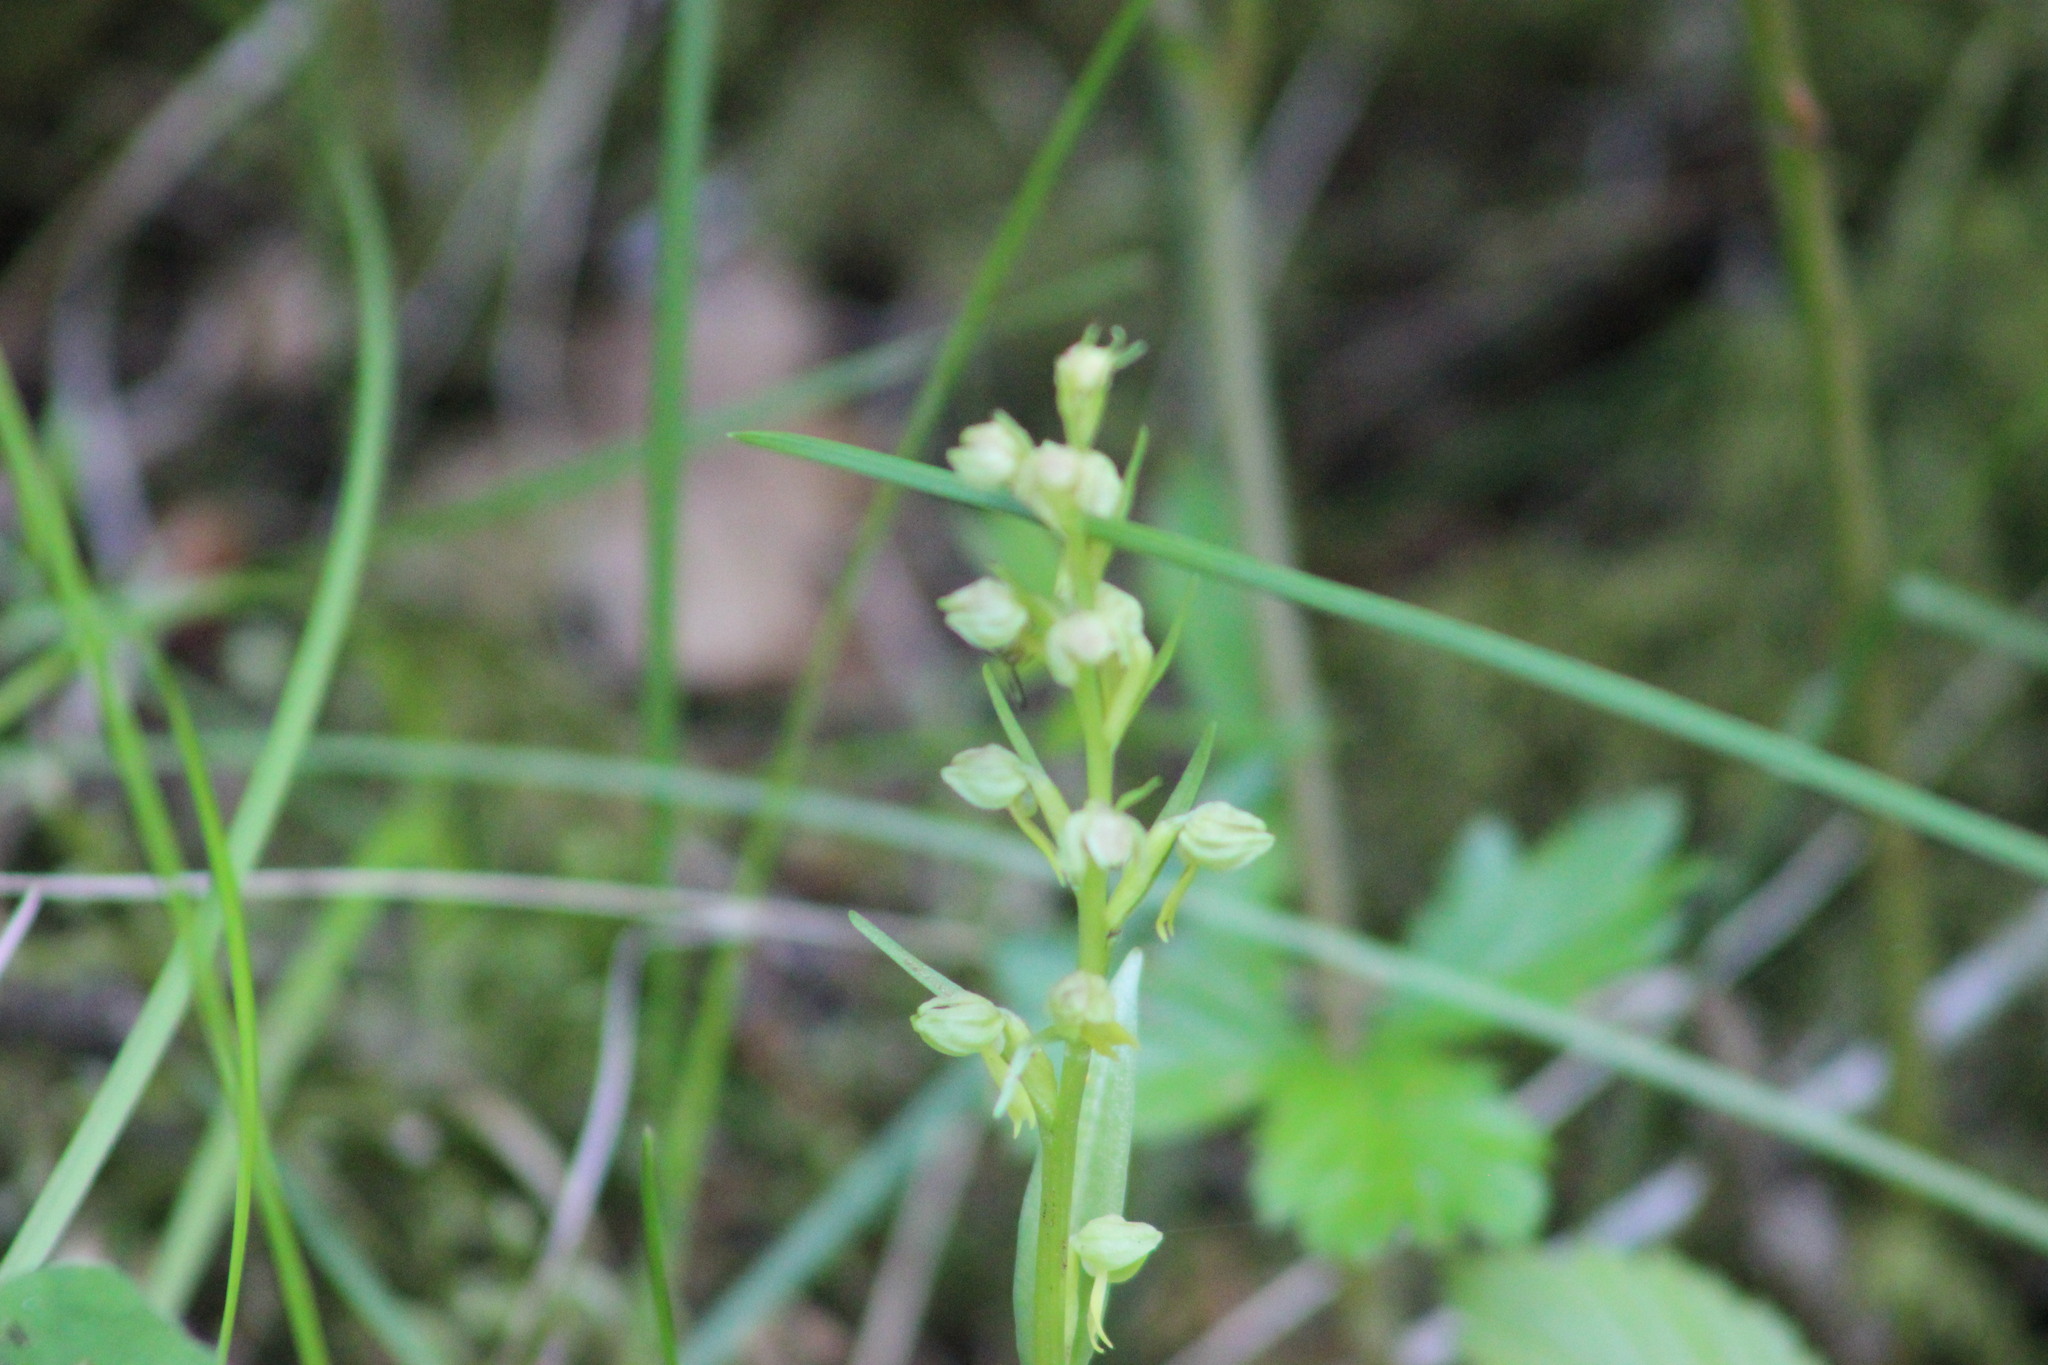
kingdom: Plantae
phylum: Tracheophyta
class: Liliopsida
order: Asparagales
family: Orchidaceae
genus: Dactylorhiza
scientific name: Dactylorhiza viridis
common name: Longbract frog orchid
